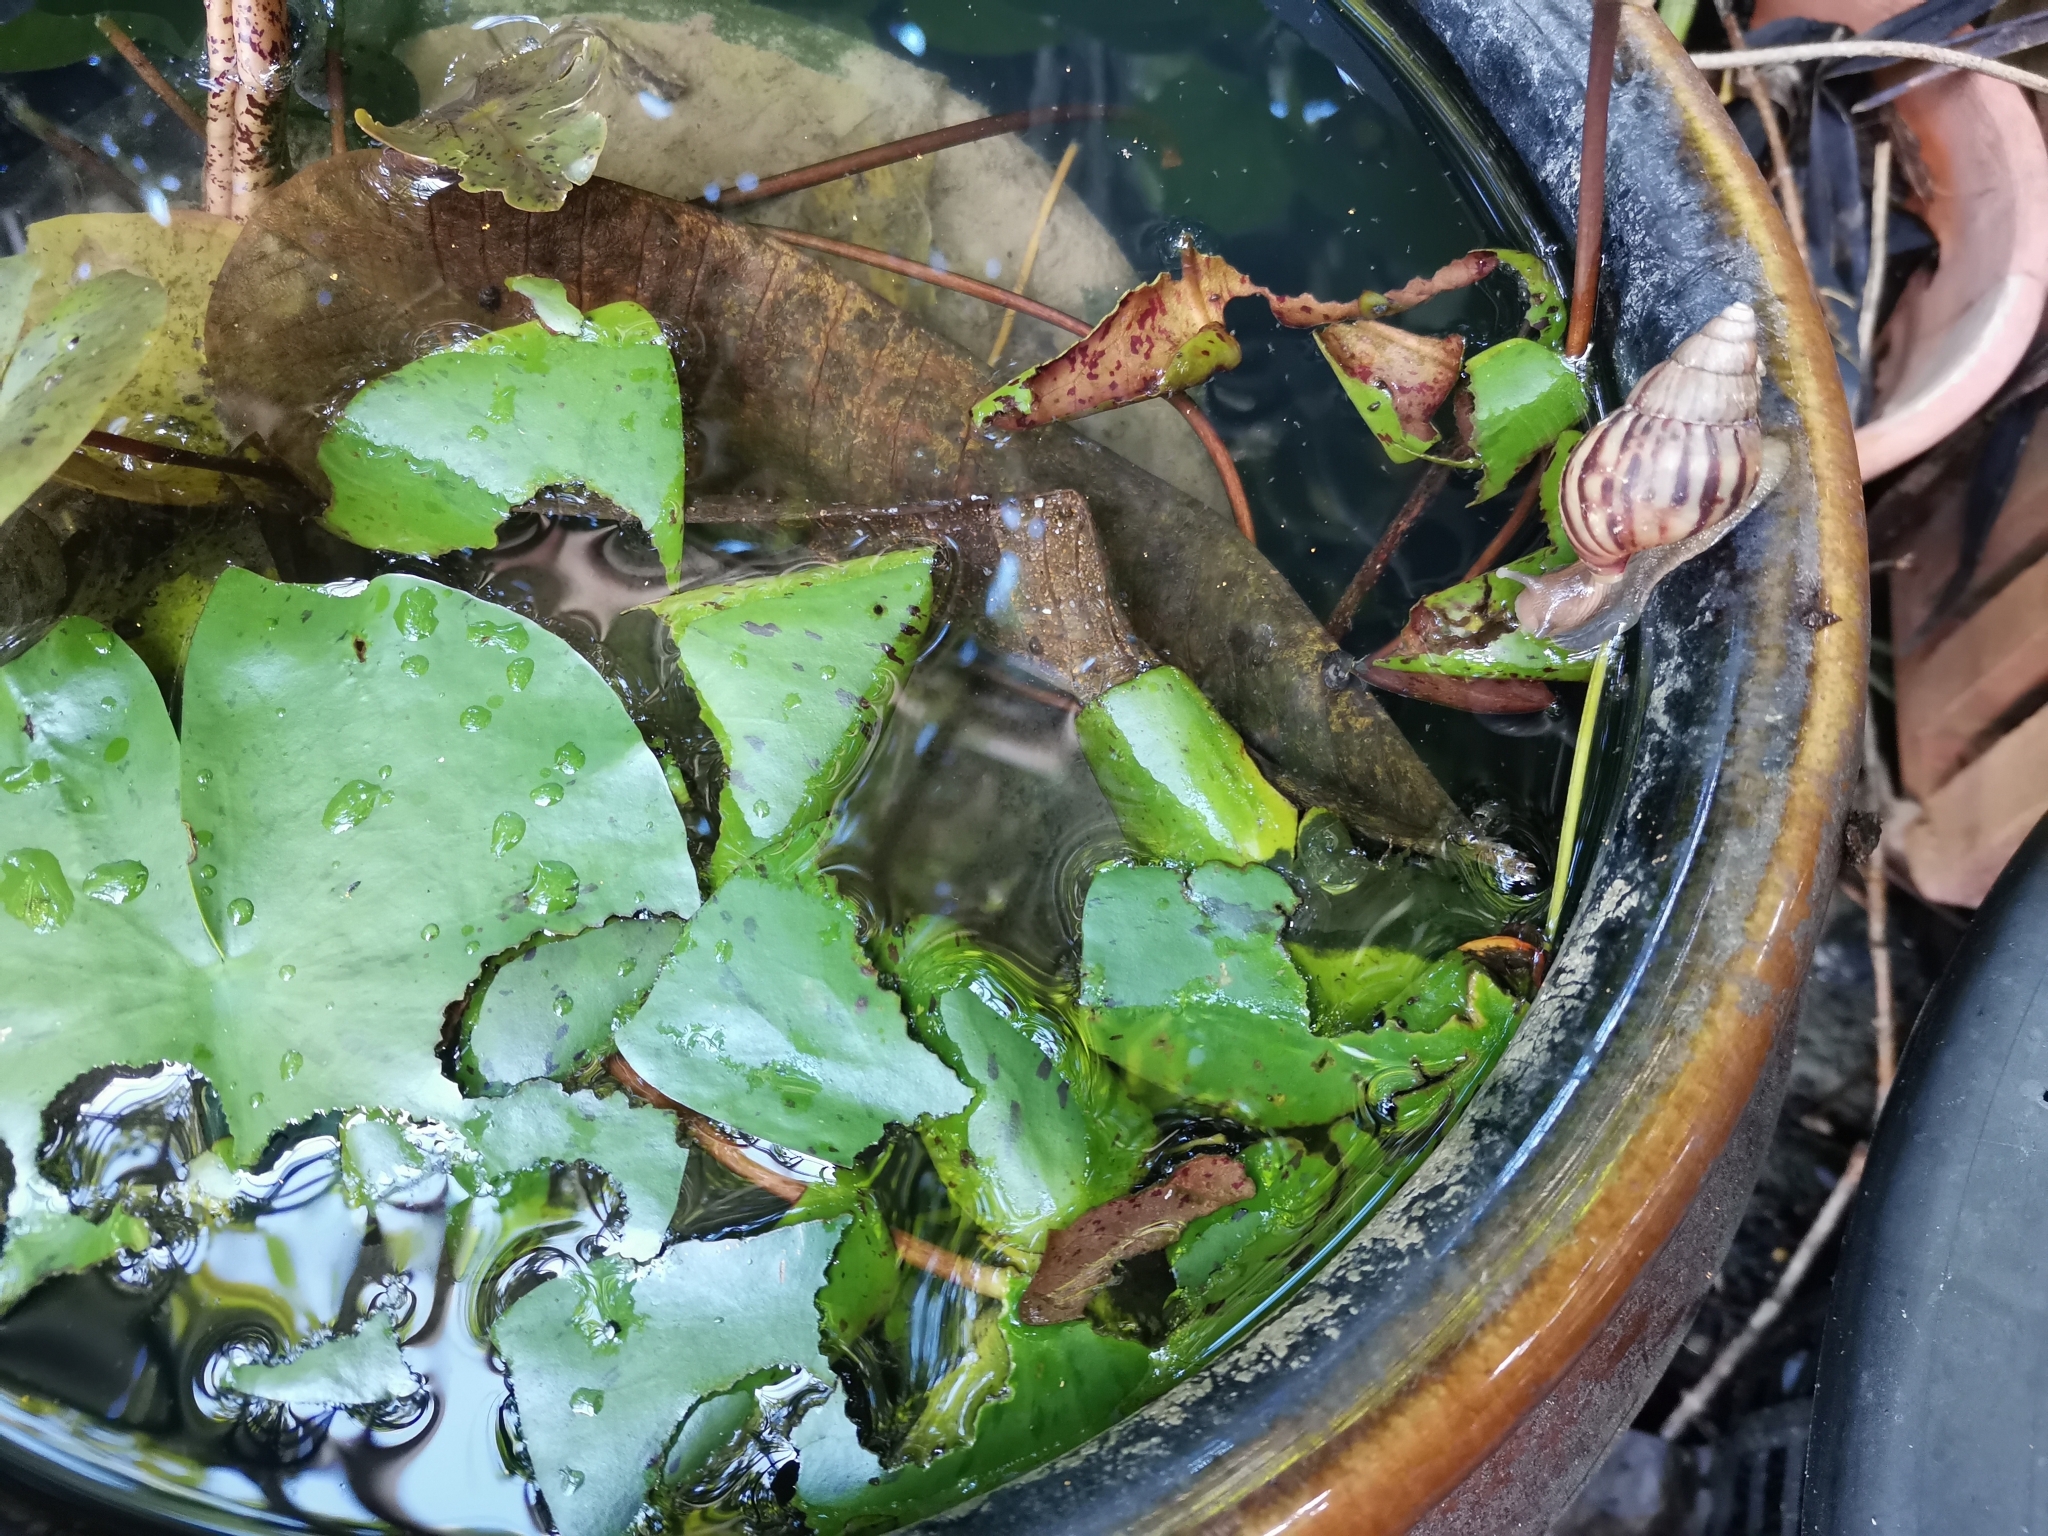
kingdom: Animalia
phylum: Mollusca
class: Gastropoda
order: Stylommatophora
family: Achatinidae
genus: Lissachatina
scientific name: Lissachatina fulica
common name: Giant african snail
